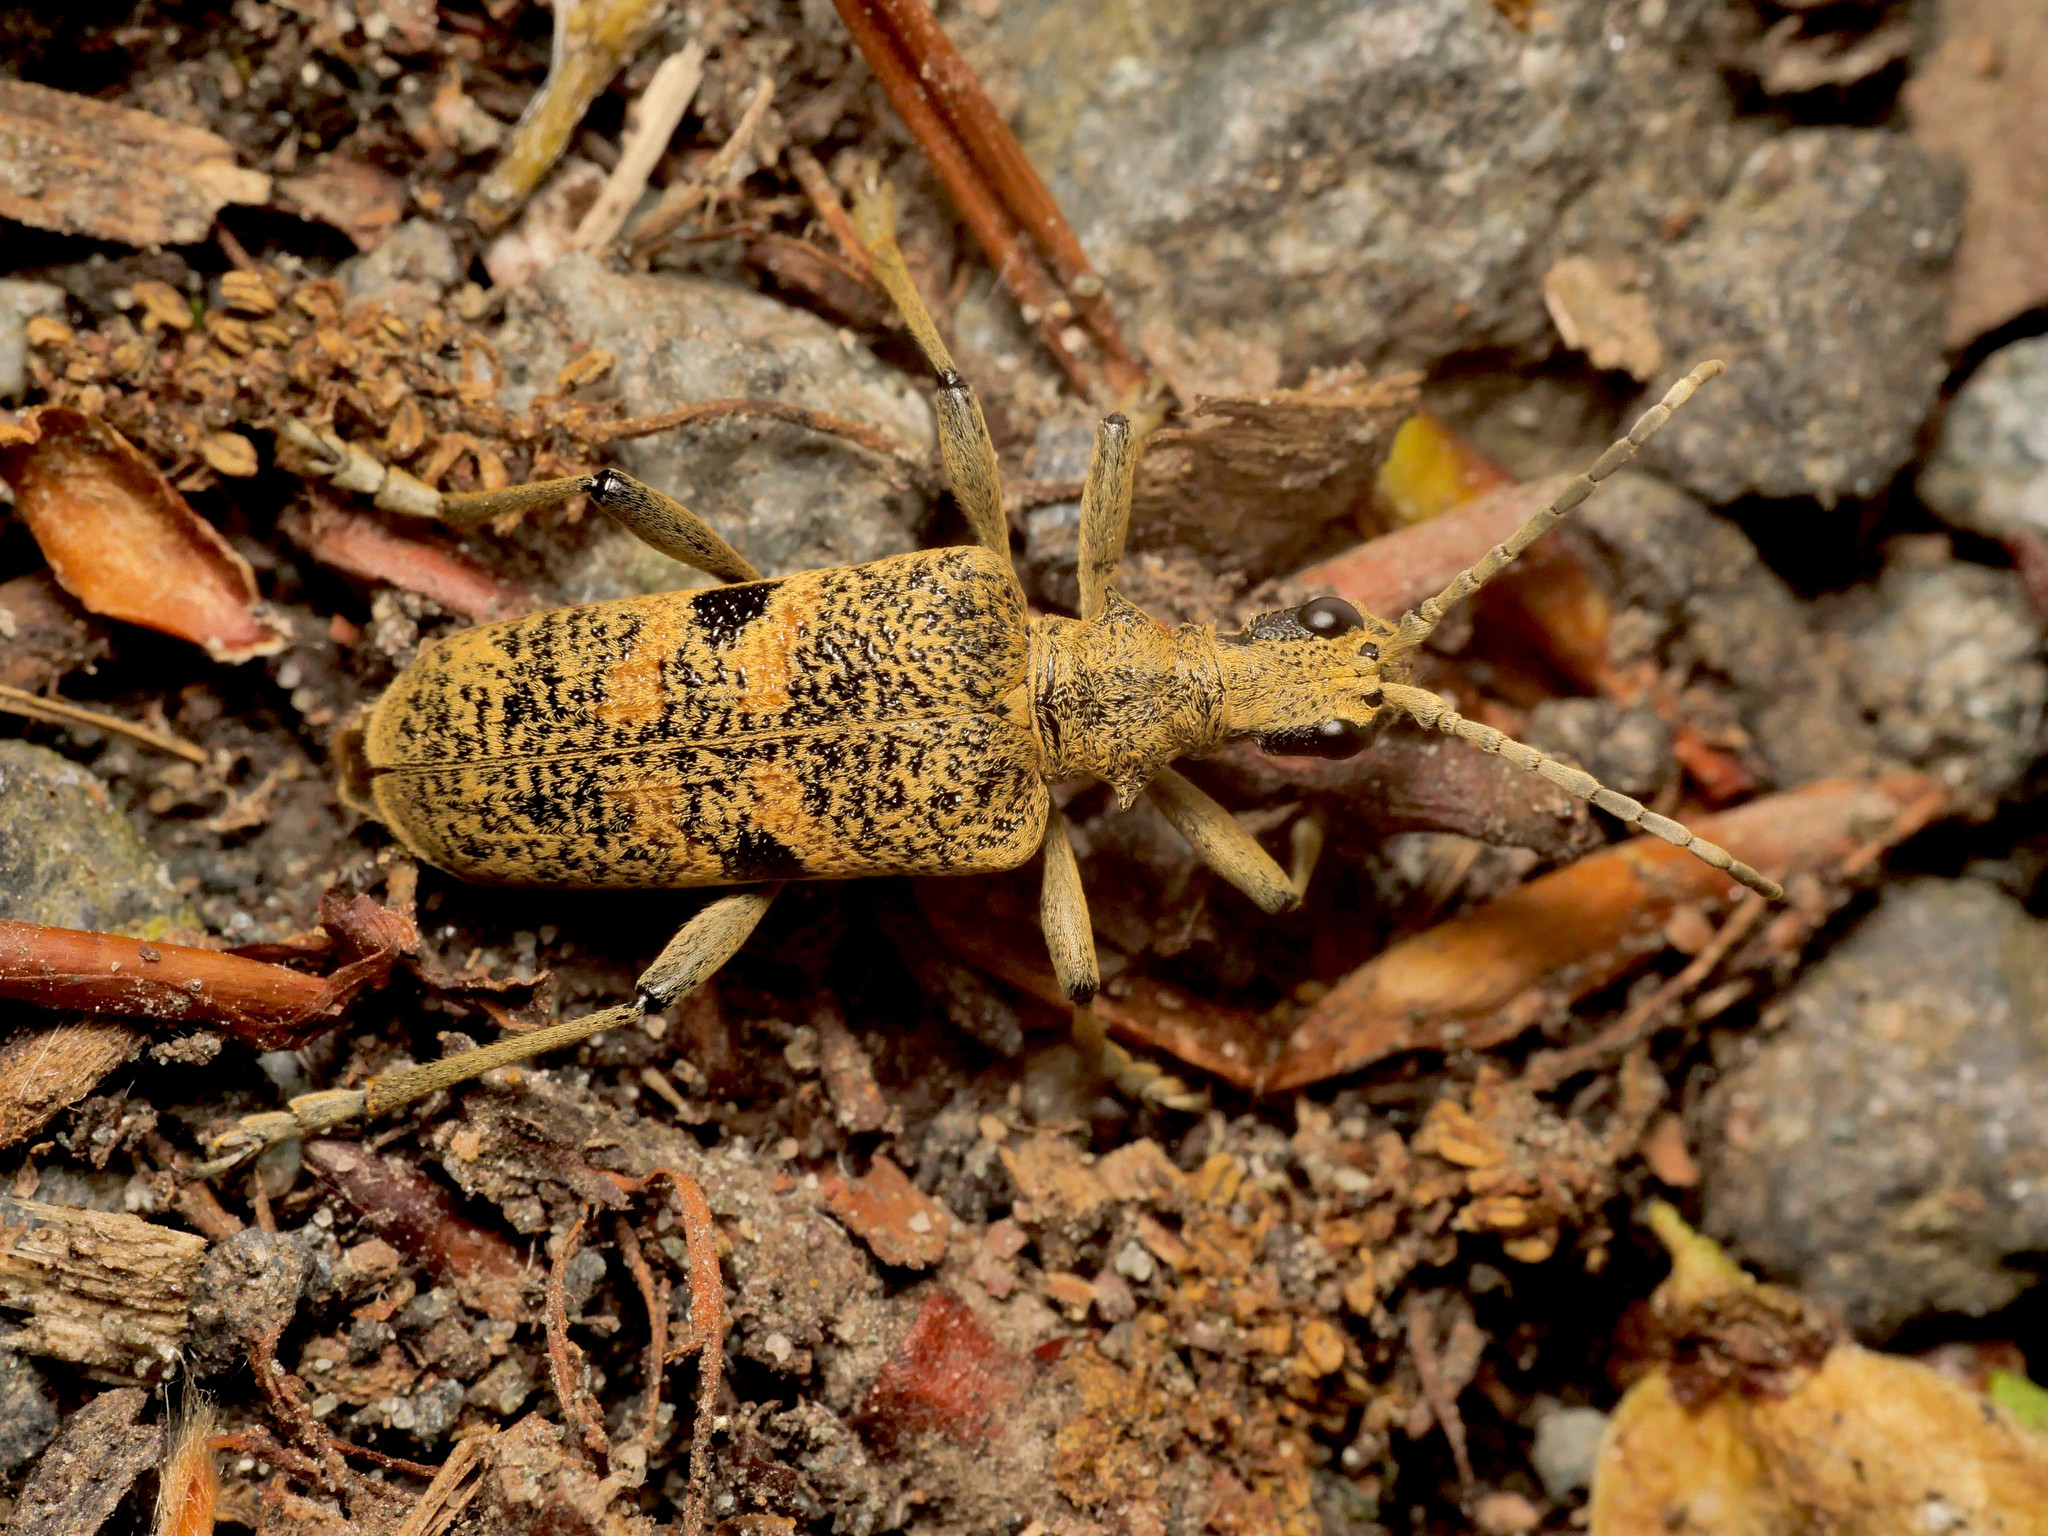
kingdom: Animalia
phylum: Arthropoda
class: Insecta
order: Coleoptera
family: Cerambycidae
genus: Rhagium
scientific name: Rhagium mordax
